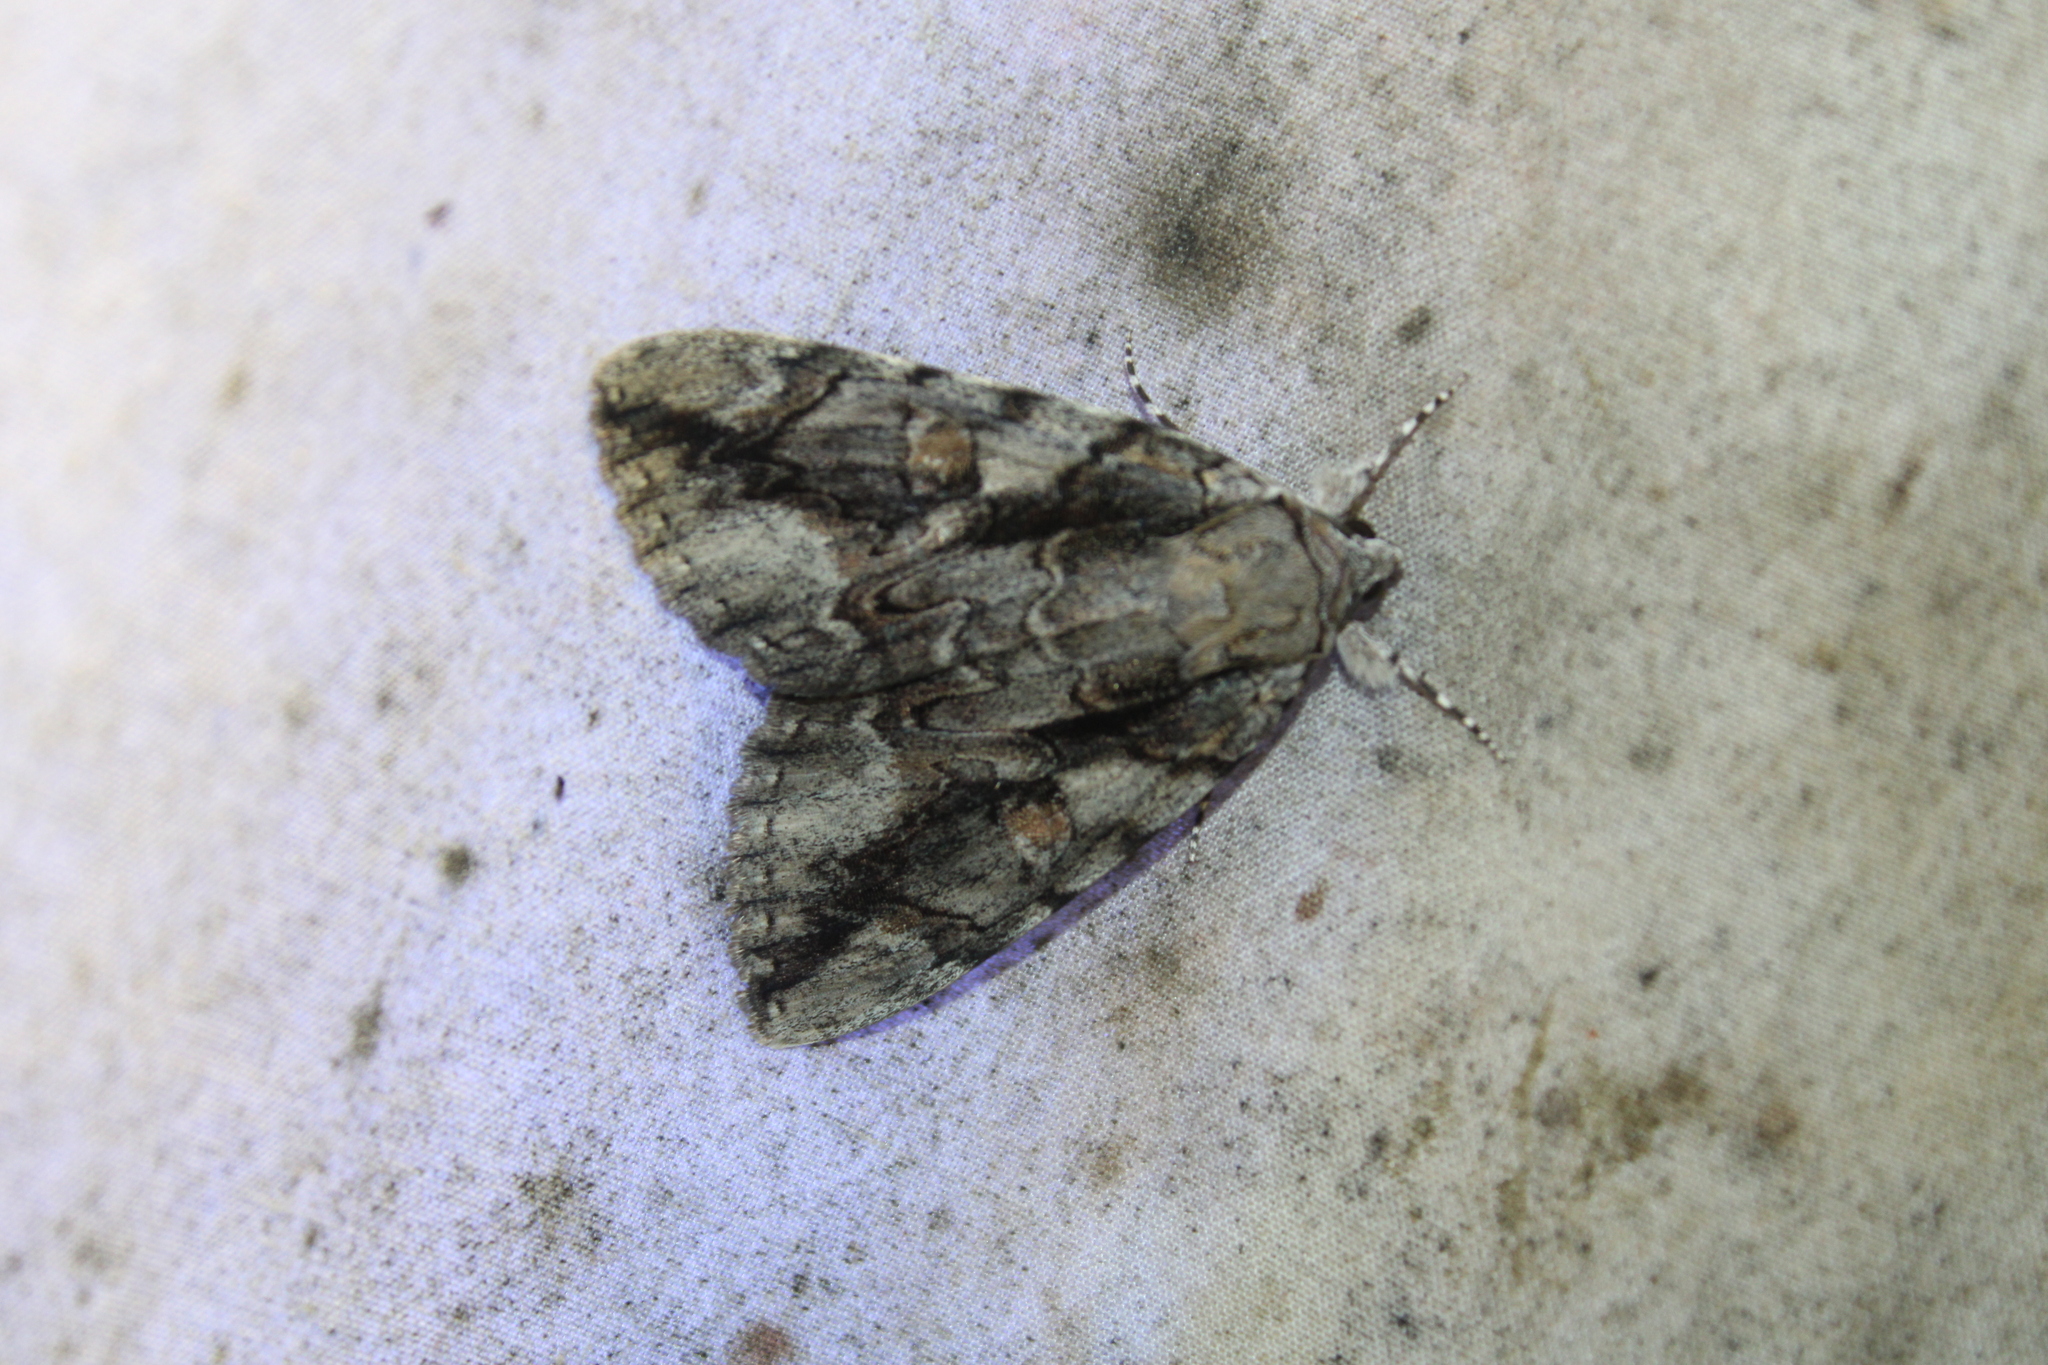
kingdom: Animalia
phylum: Arthropoda
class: Insecta
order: Lepidoptera
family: Erebidae
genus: Catocala
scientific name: Catocala flebilis
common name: Mournful underwing
